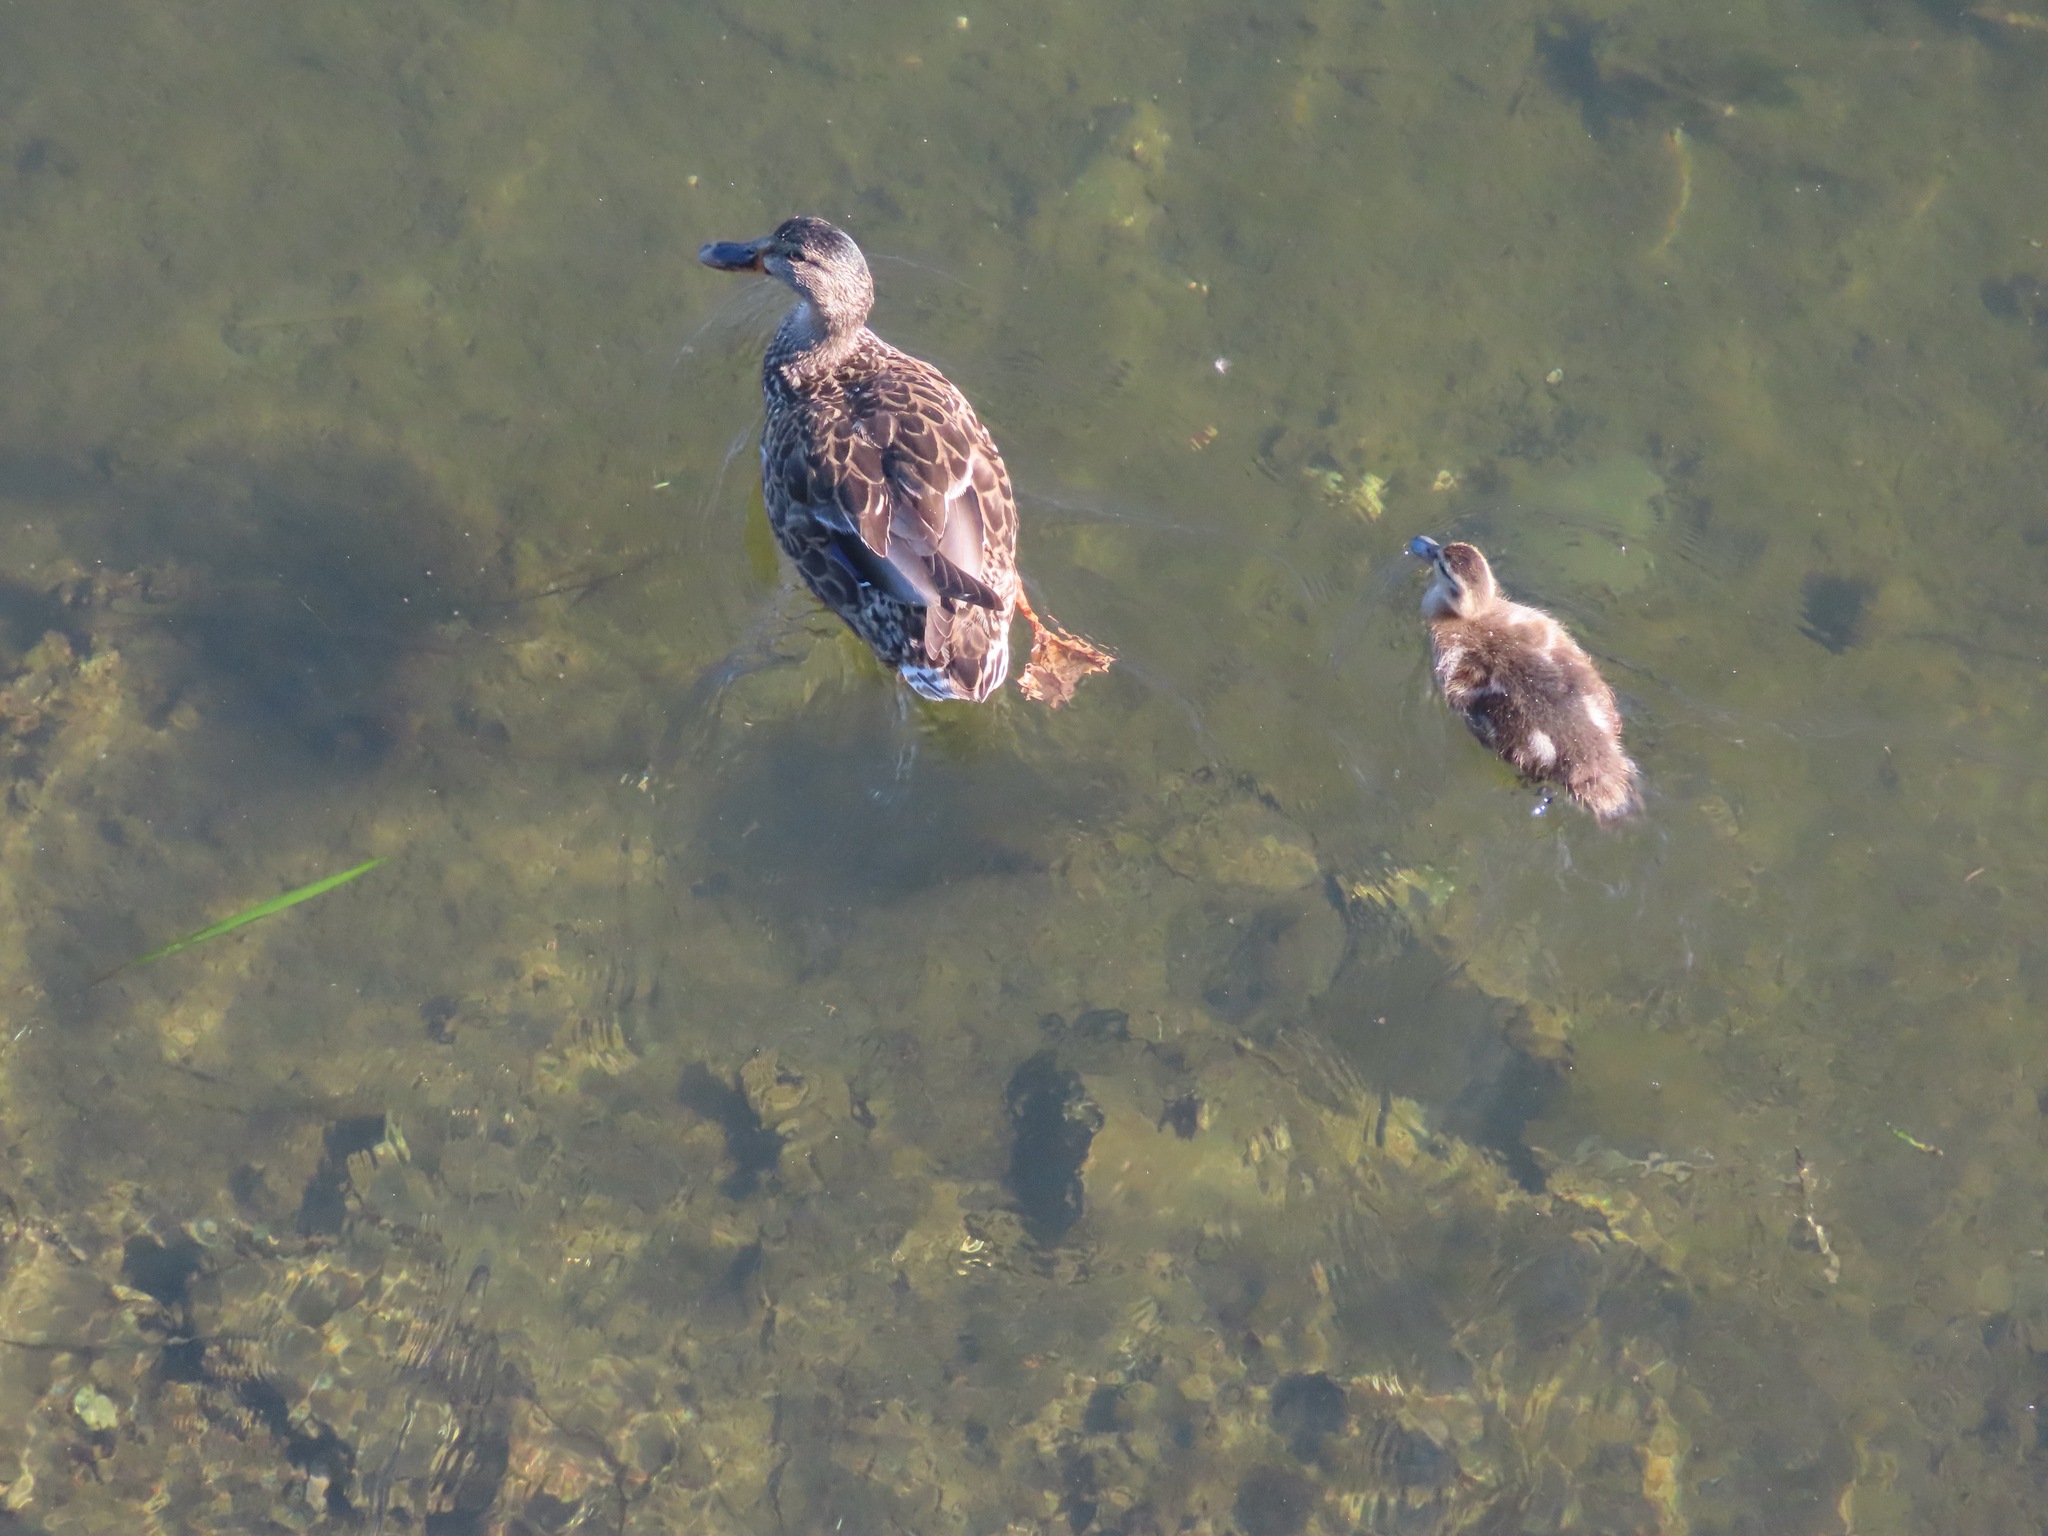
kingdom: Animalia
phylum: Chordata
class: Aves
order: Anseriformes
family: Anatidae
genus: Anas
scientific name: Anas platyrhynchos
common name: Mallard
